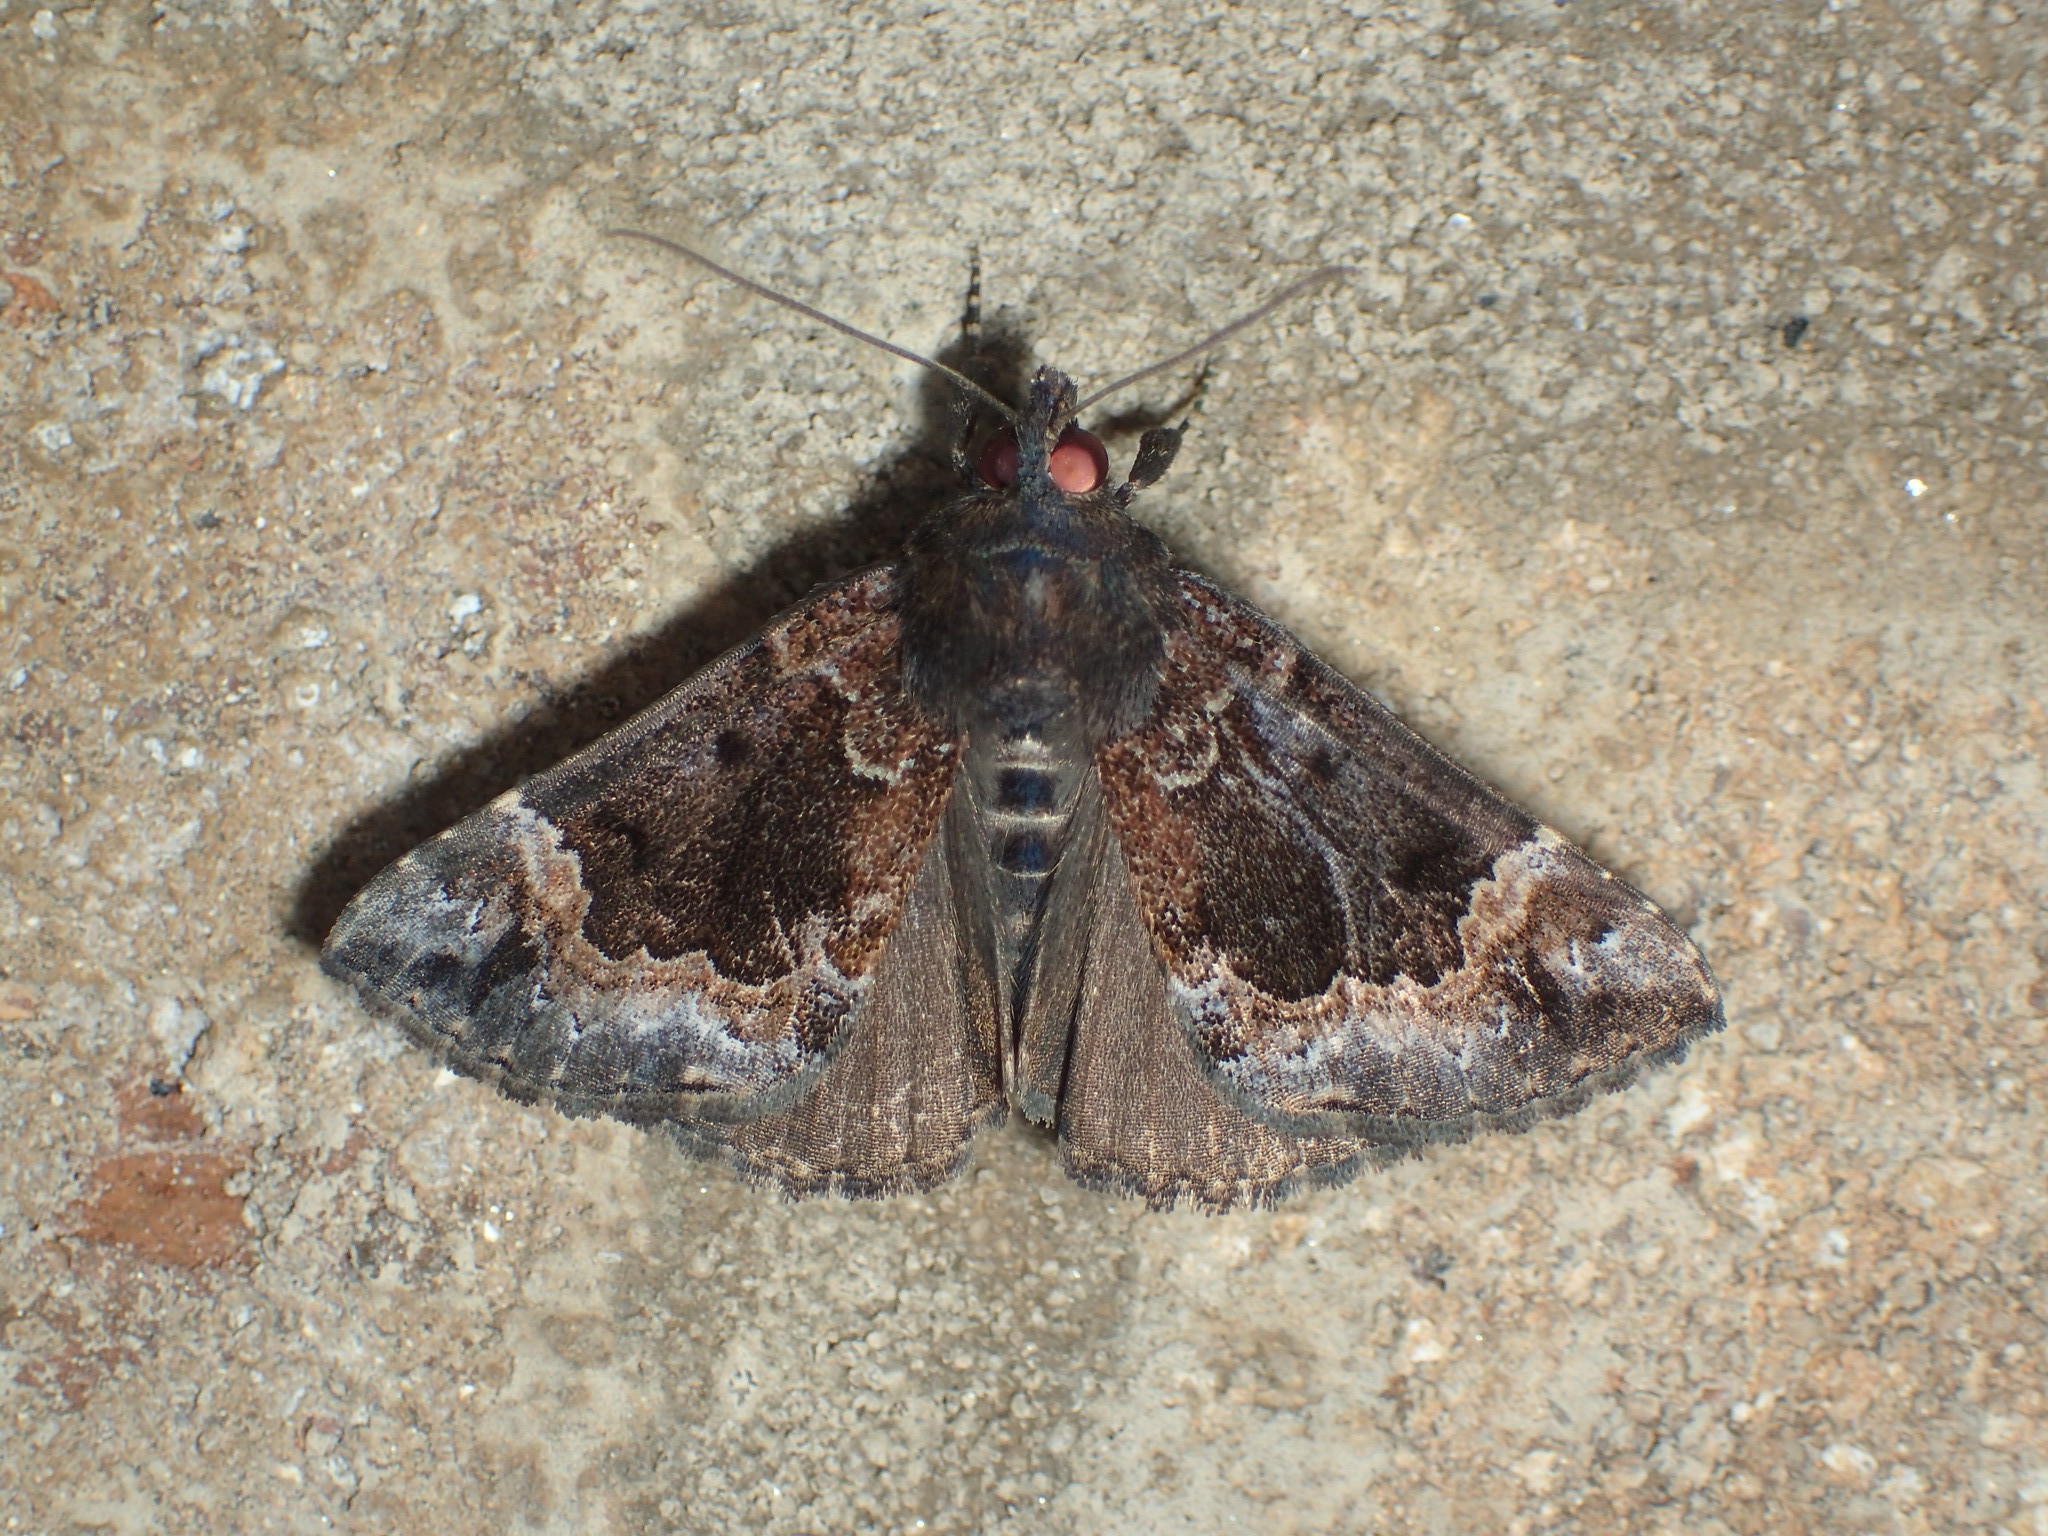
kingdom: Animalia
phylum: Arthropoda
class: Insecta
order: Lepidoptera
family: Erebidae
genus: Hypena
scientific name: Hypena palparia
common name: Mottled bomolocha moth
